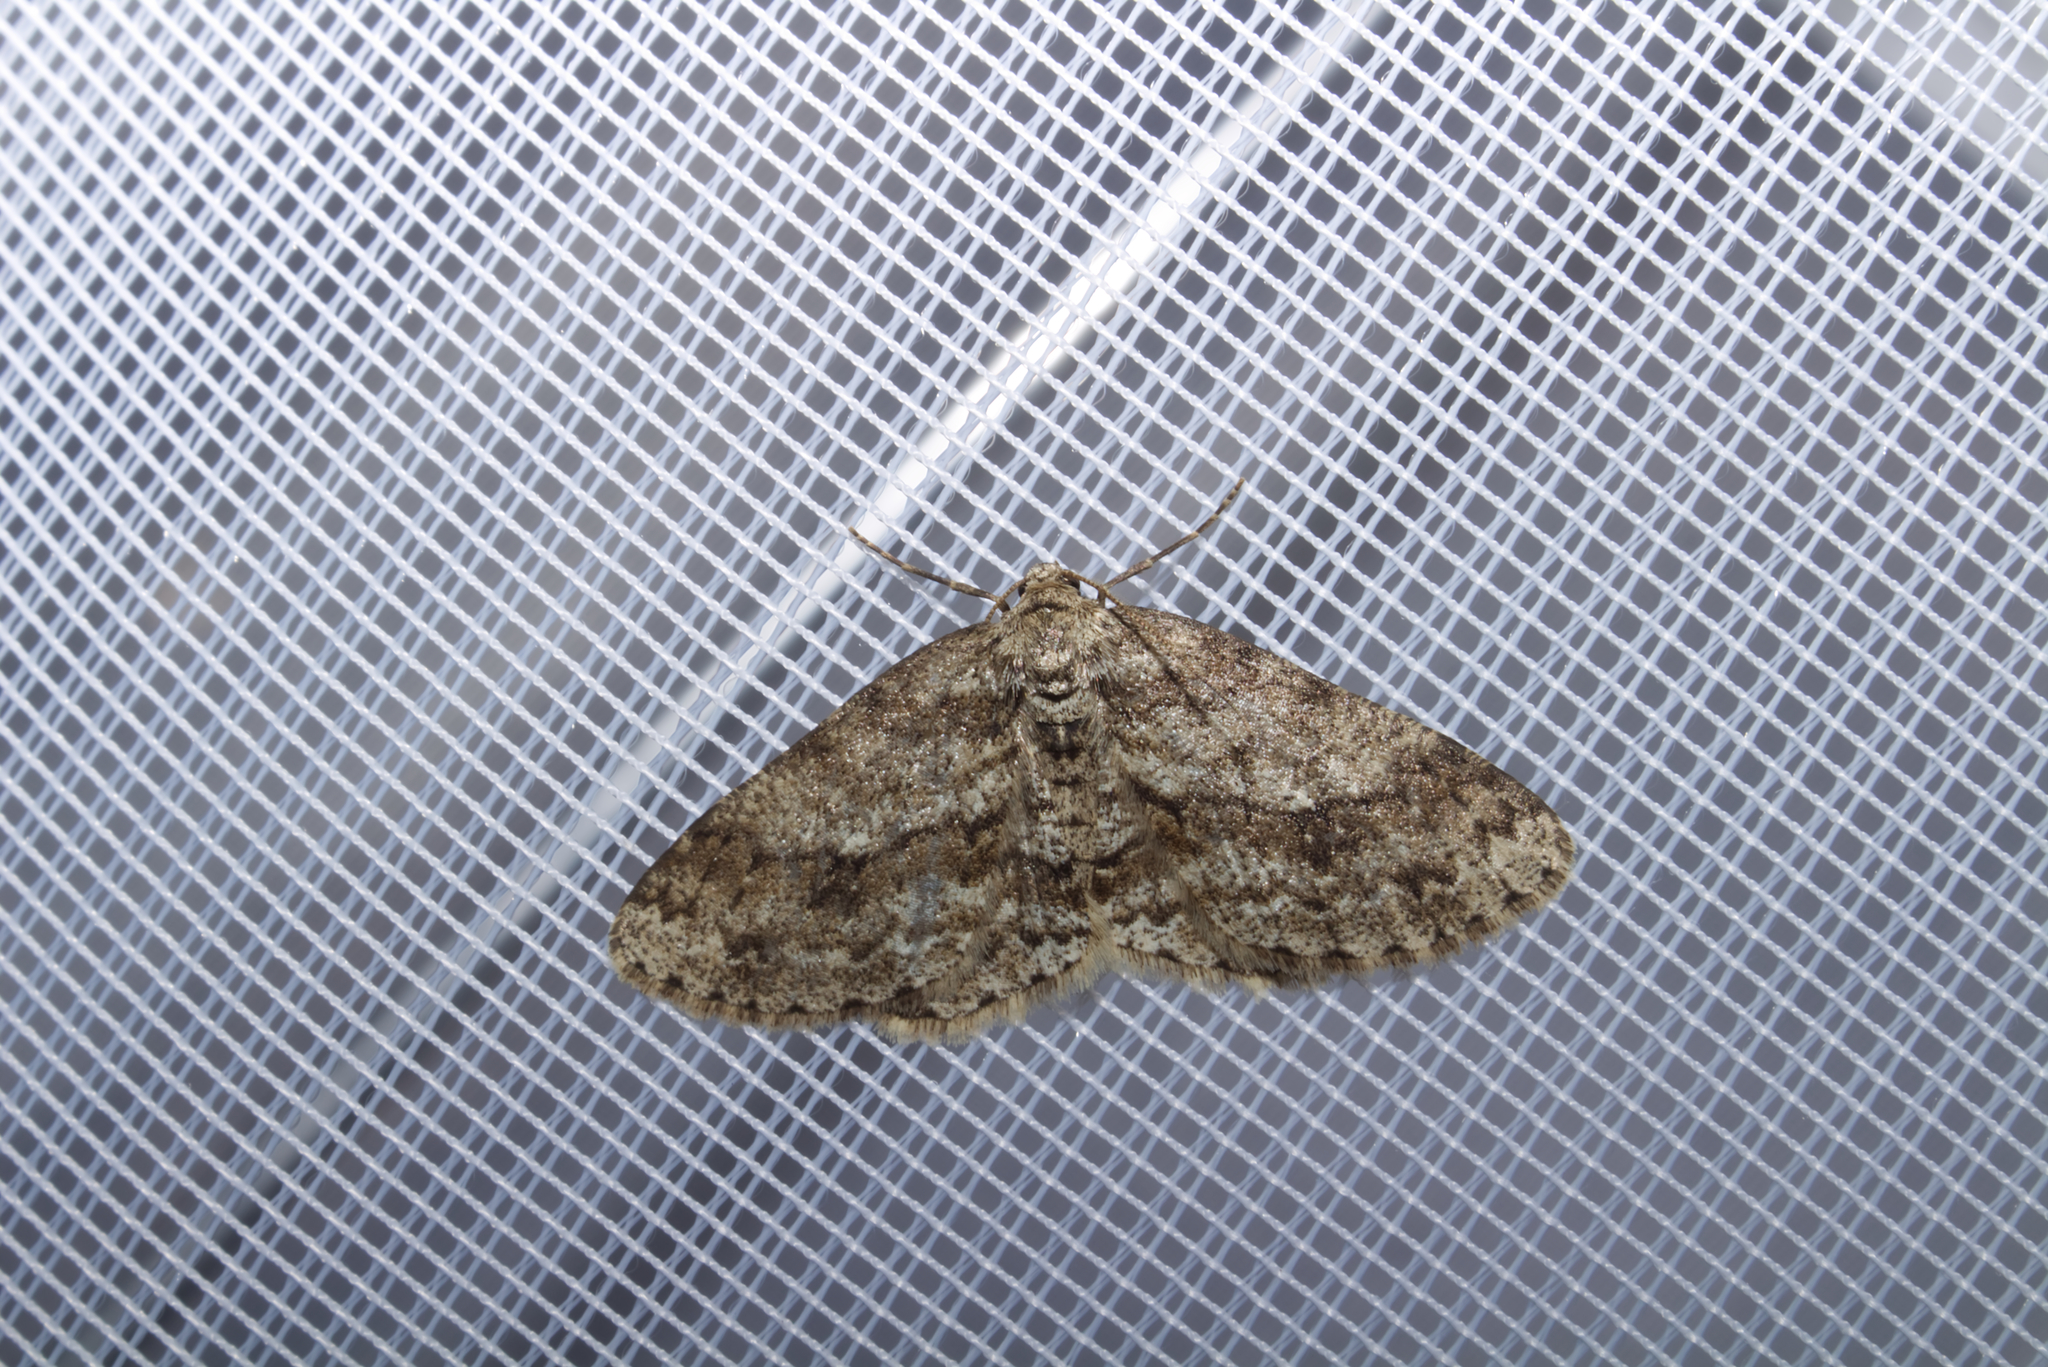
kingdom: Animalia
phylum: Arthropoda
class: Insecta
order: Lepidoptera
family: Geometridae
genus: Ectropis
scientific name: Ectropis crepuscularia
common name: Engrailed
